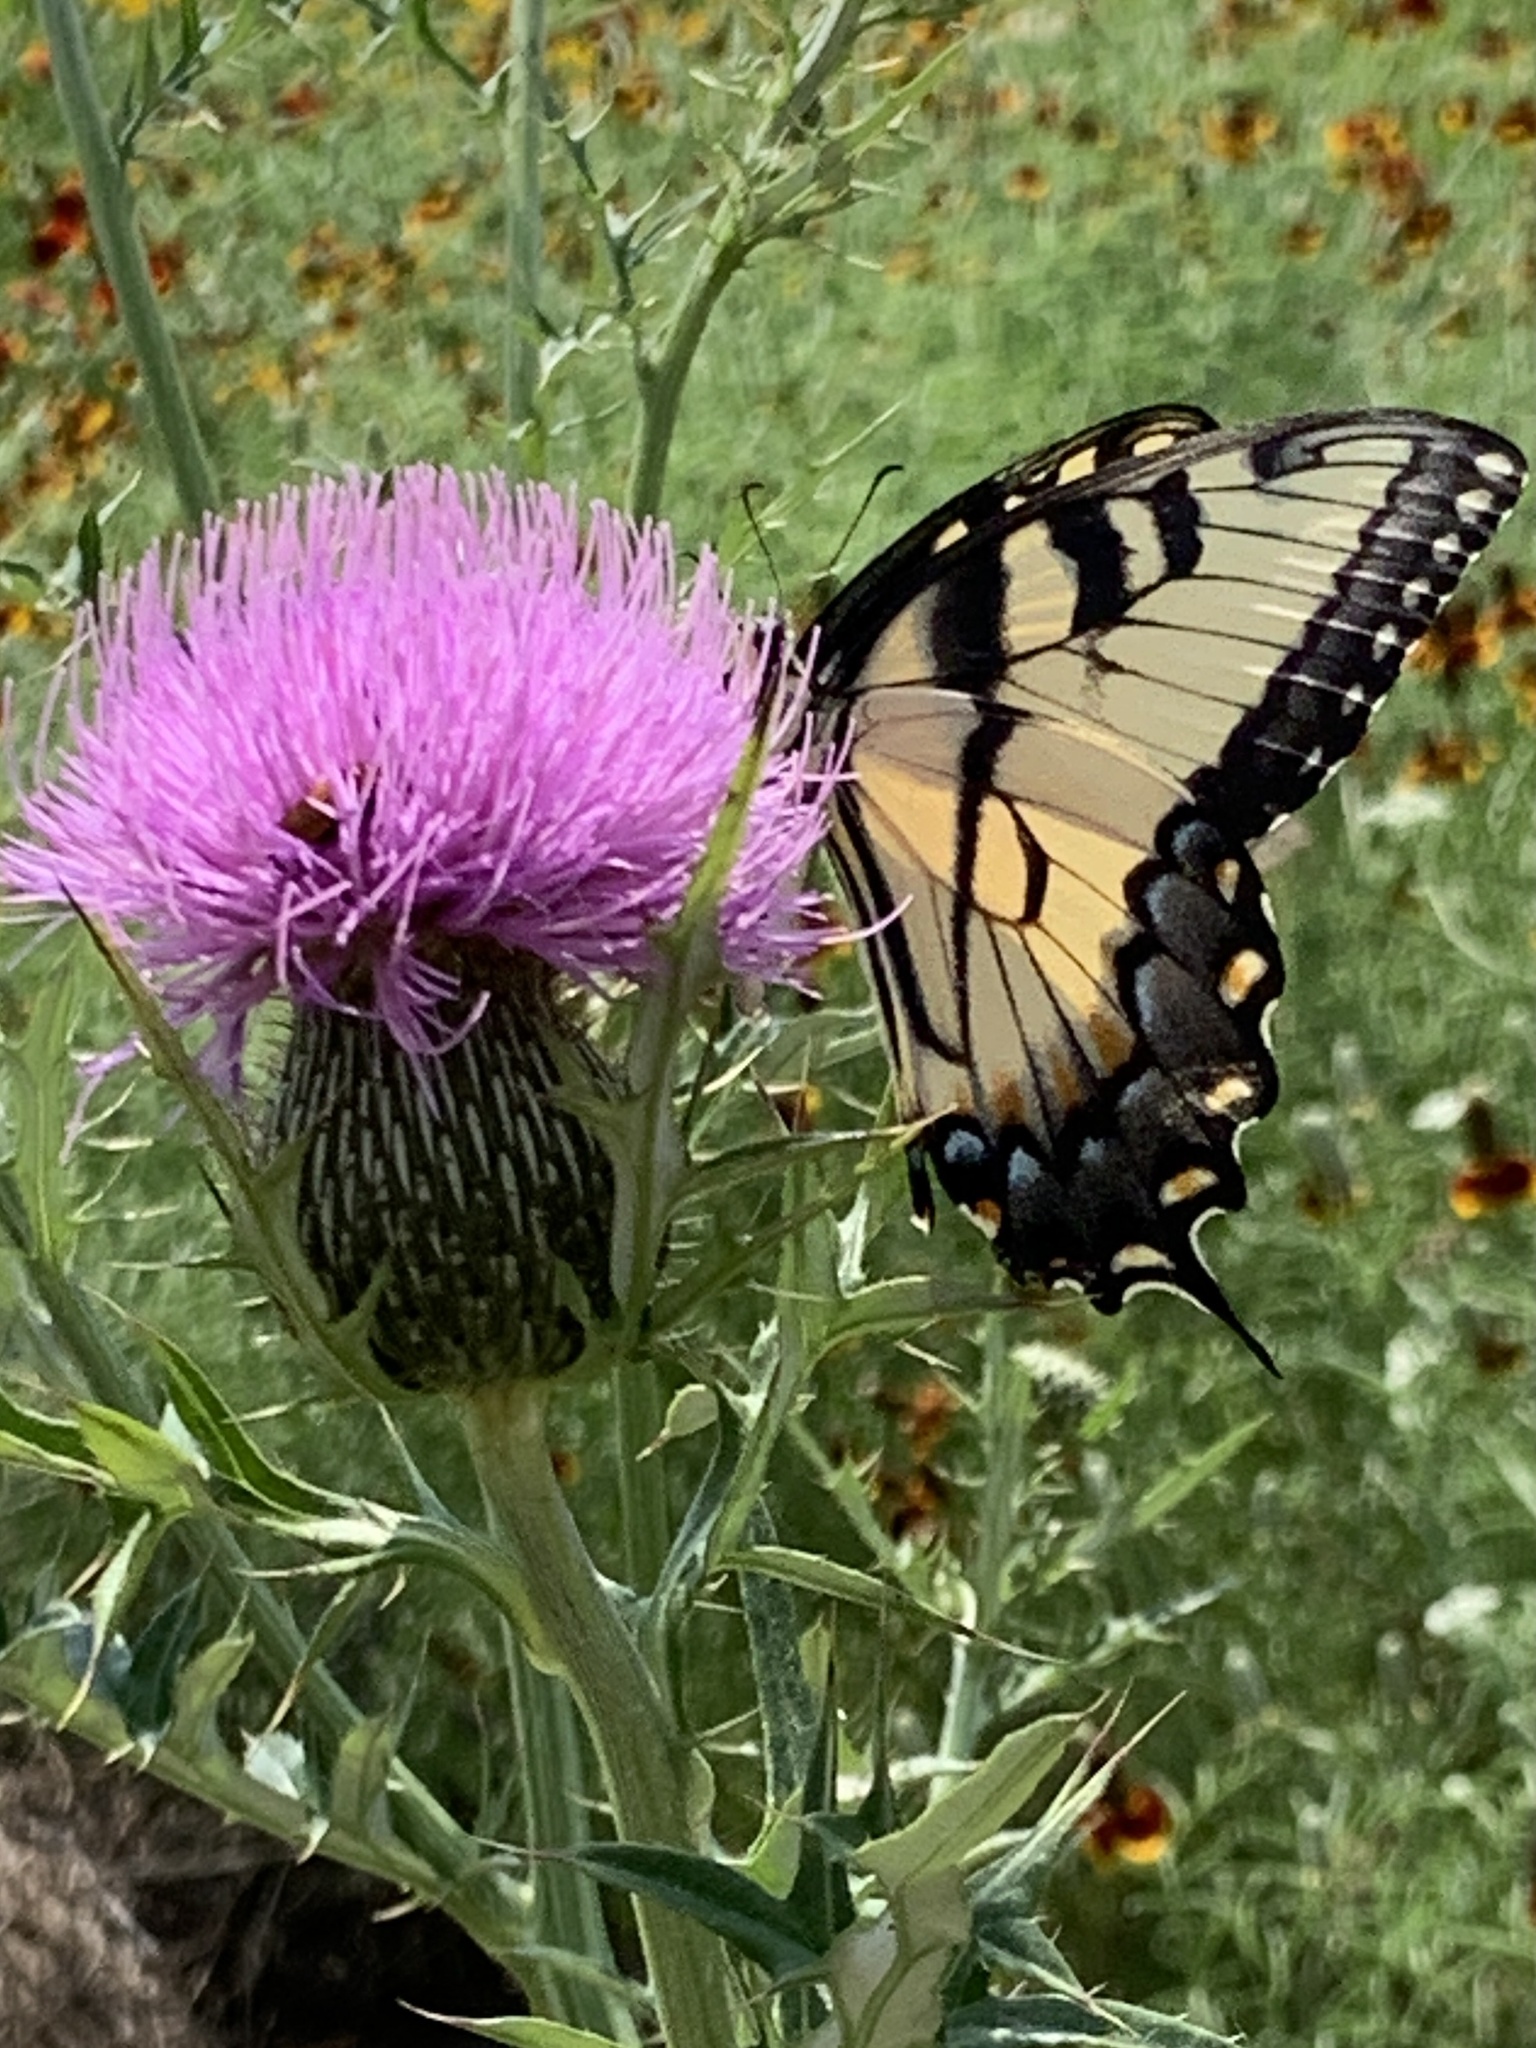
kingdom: Animalia
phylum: Arthropoda
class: Insecta
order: Lepidoptera
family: Papilionidae
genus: Papilio
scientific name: Papilio glaucus
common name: Tiger swallowtail
